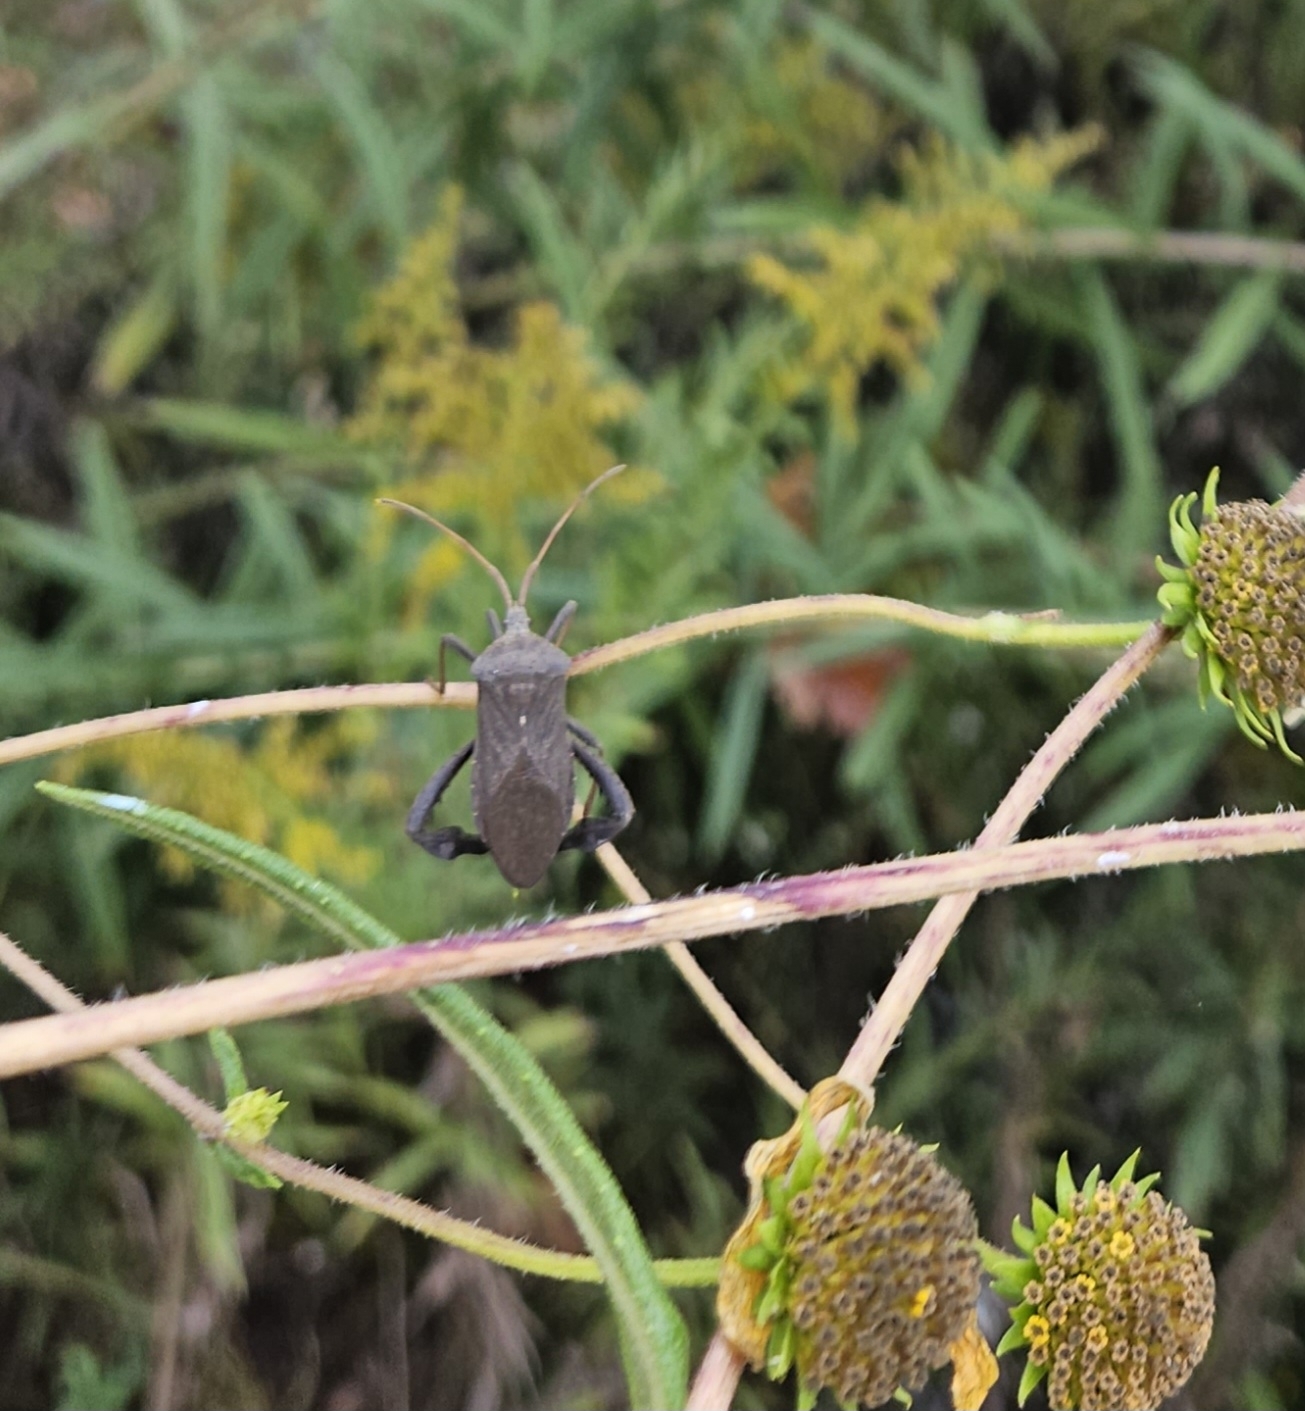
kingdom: Animalia
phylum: Arthropoda
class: Insecta
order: Hemiptera
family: Coreidae
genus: Acanthocephala
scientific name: Acanthocephala femorata
